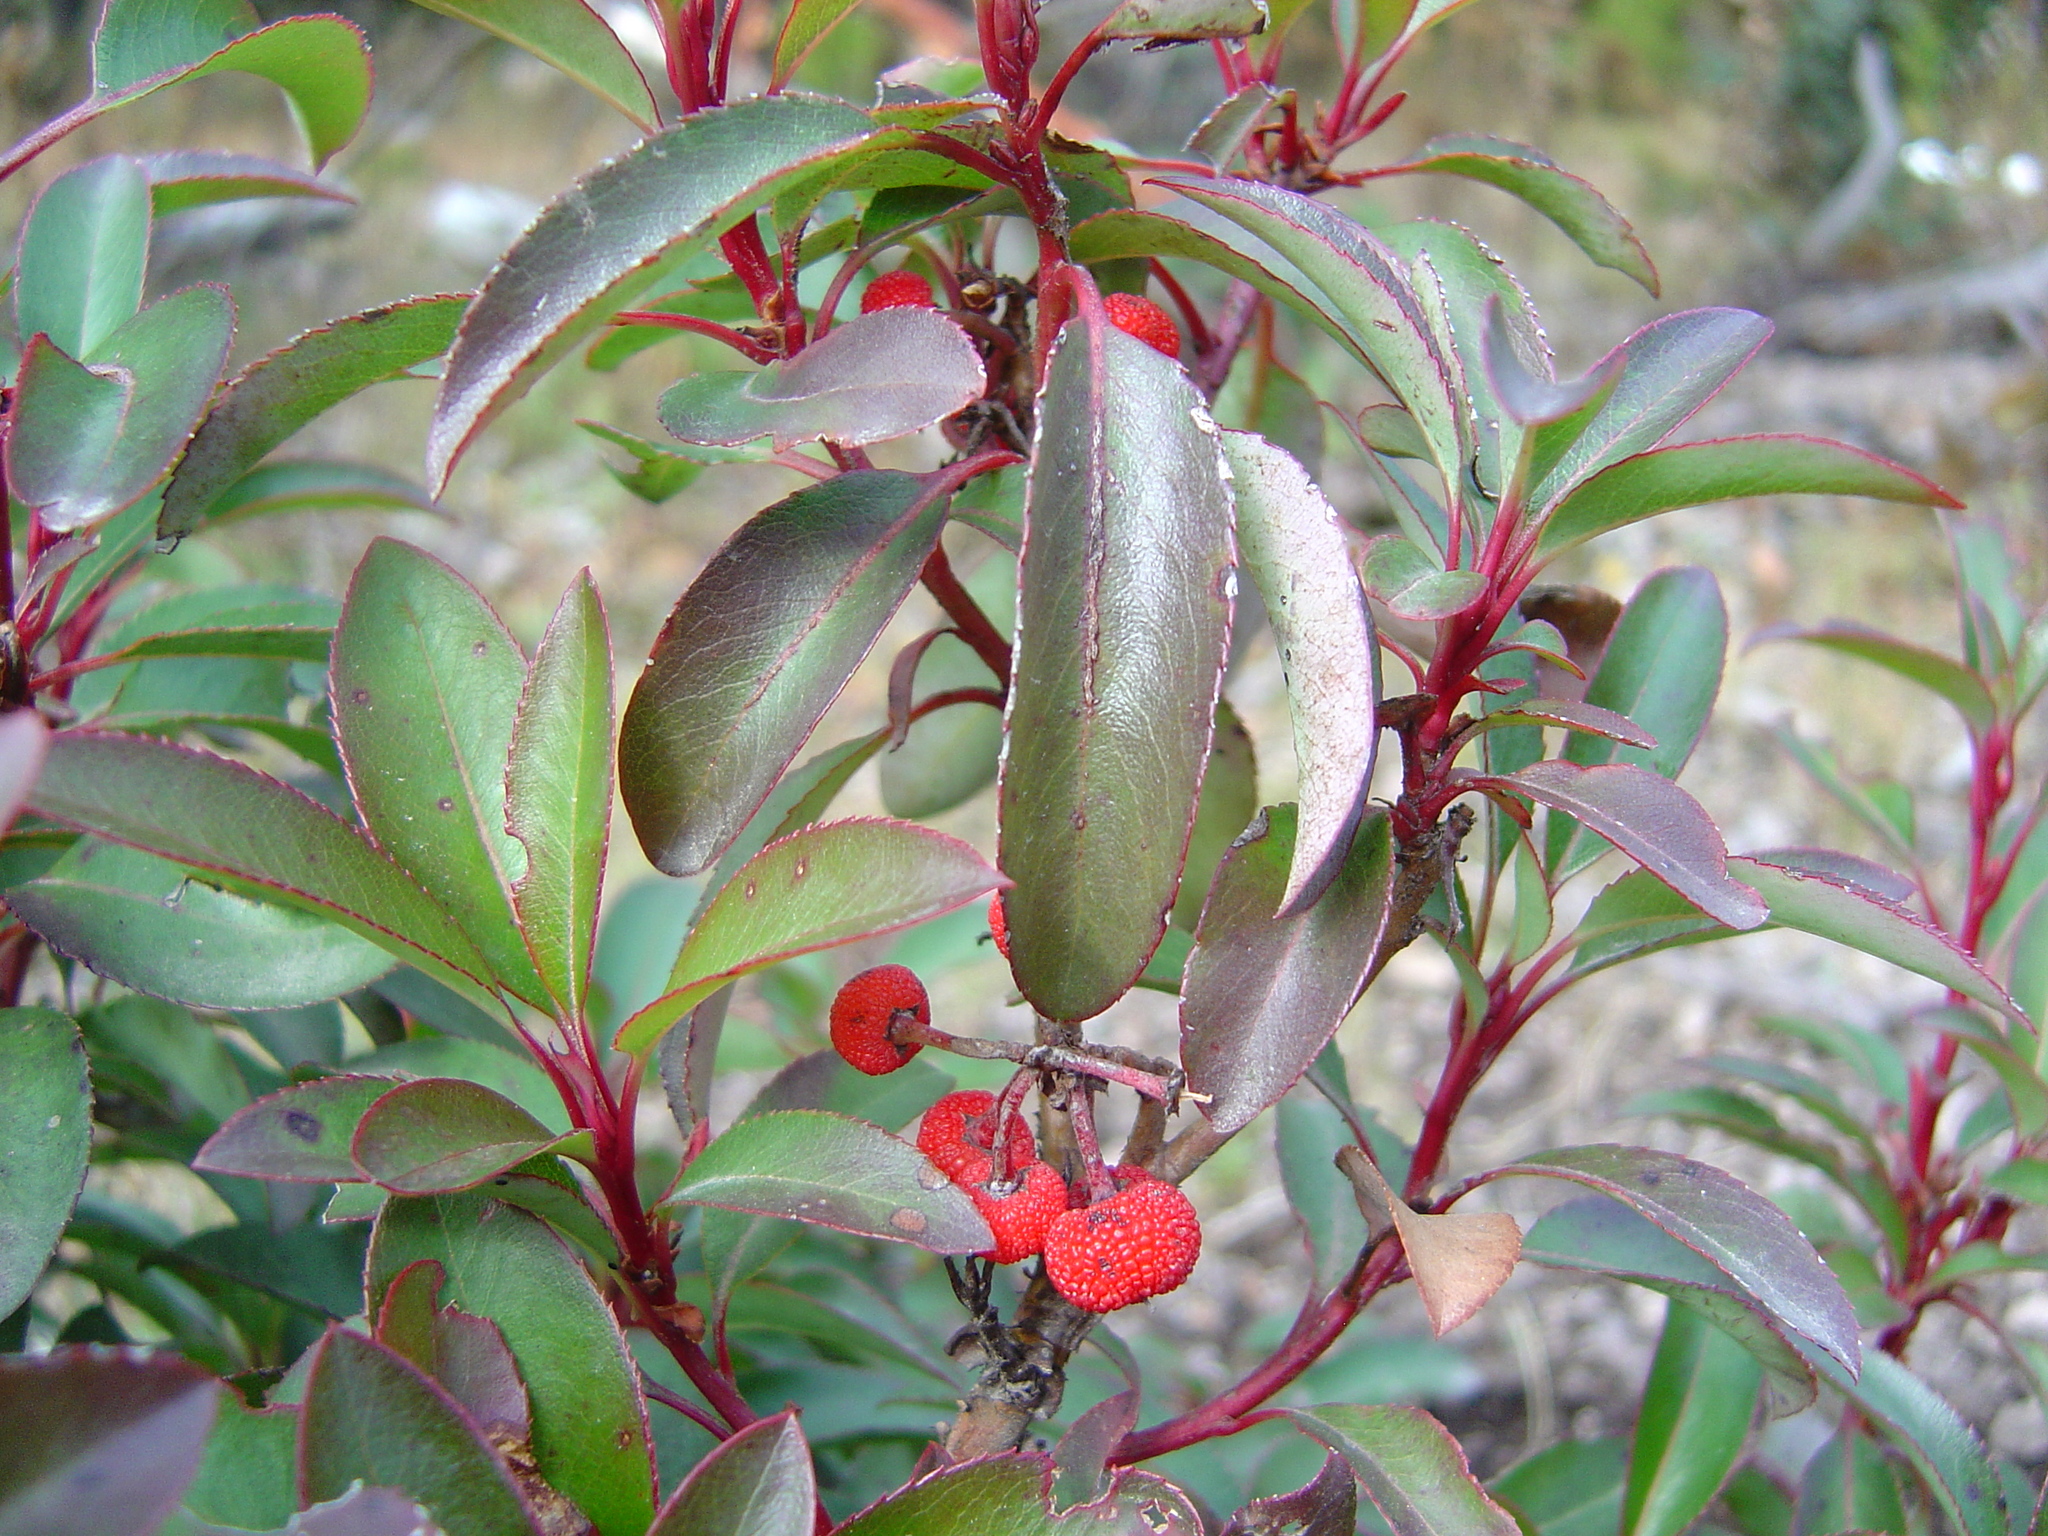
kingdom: Plantae
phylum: Tracheophyta
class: Magnoliopsida
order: Ericales
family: Ericaceae
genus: Arbutus
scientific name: Arbutus mollis
